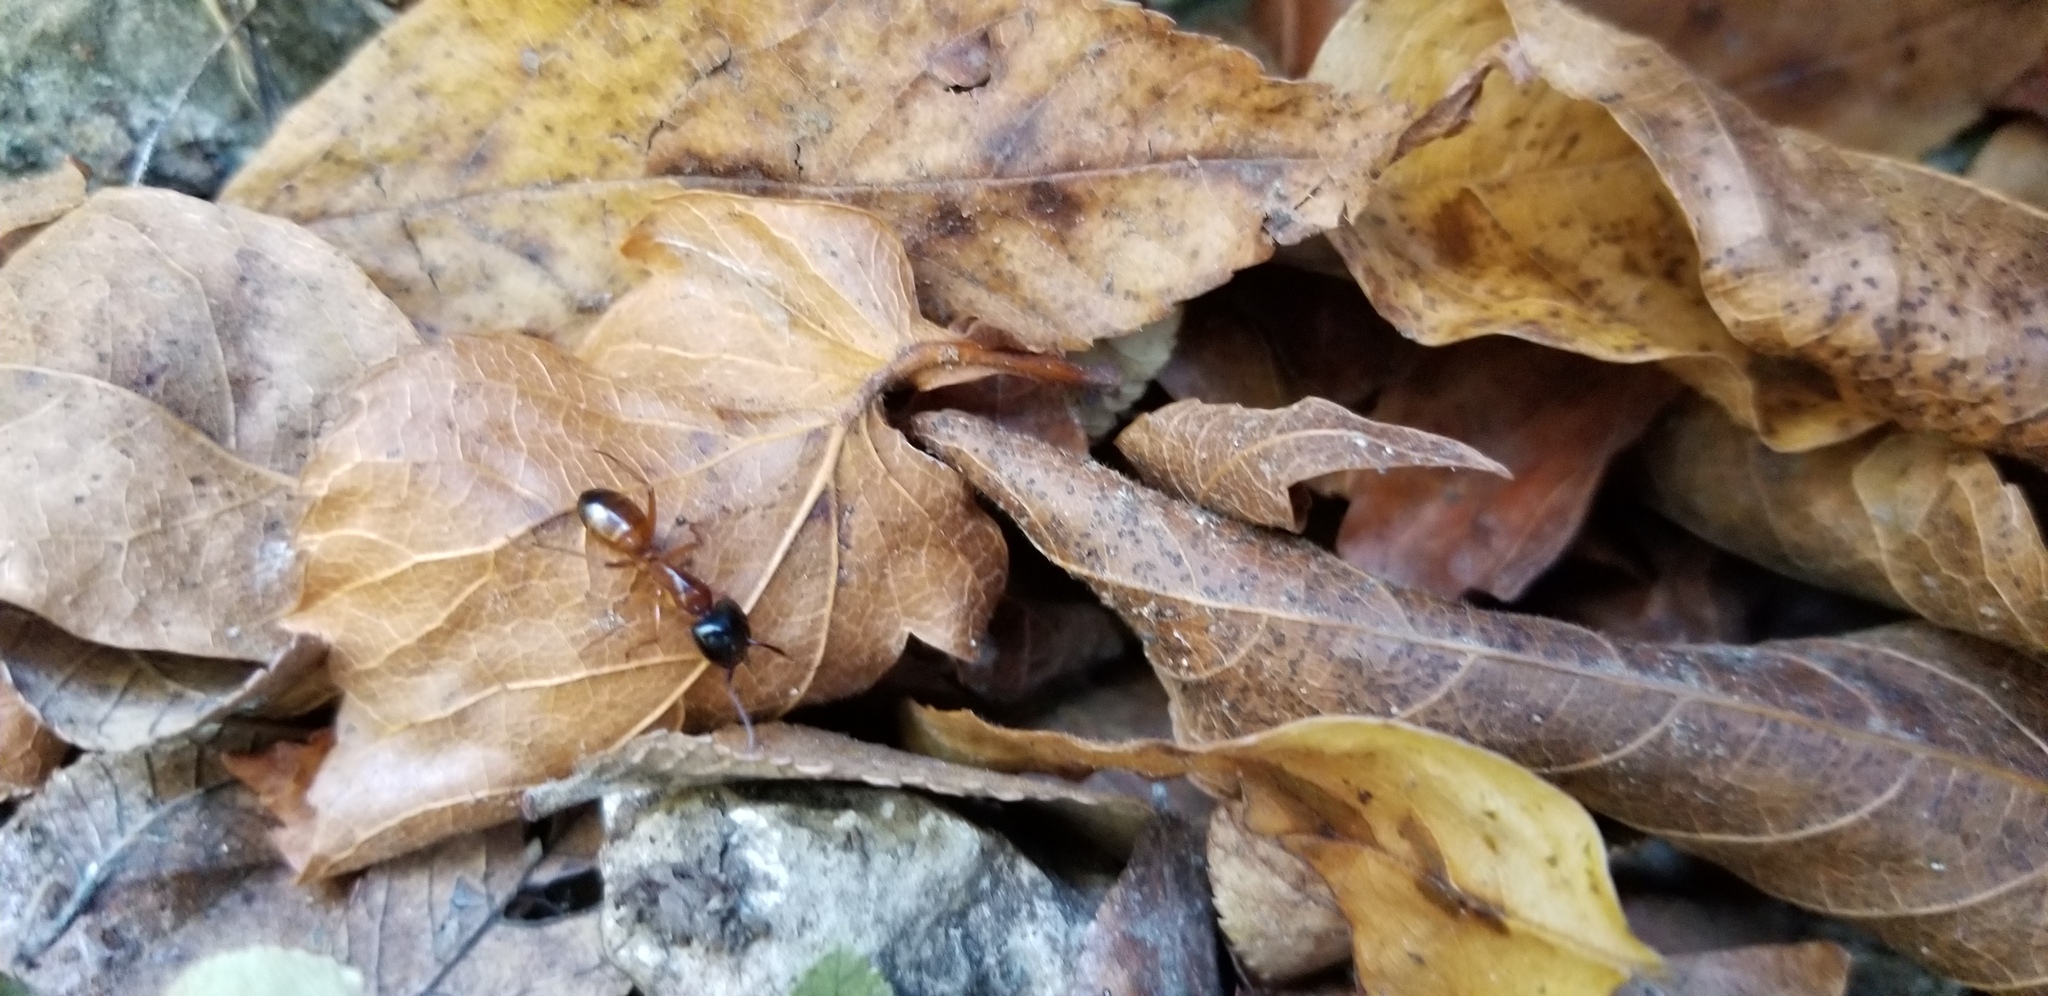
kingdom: Animalia
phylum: Arthropoda
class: Insecta
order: Hymenoptera
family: Formicidae
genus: Camponotus
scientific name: Camponotus sansabeanus
